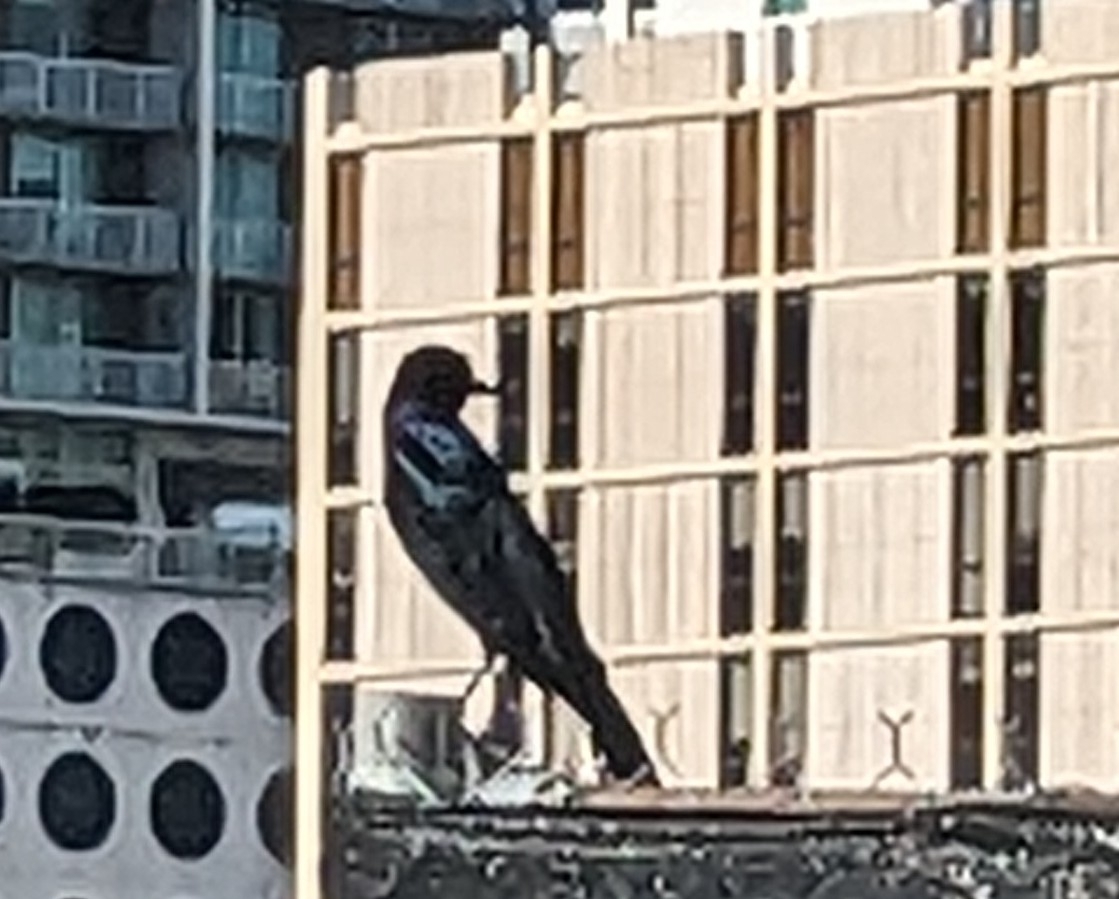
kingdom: Animalia
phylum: Chordata
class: Aves
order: Passeriformes
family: Icteridae
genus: Quiscalus
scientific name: Quiscalus major
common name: Boat-tailed grackle
